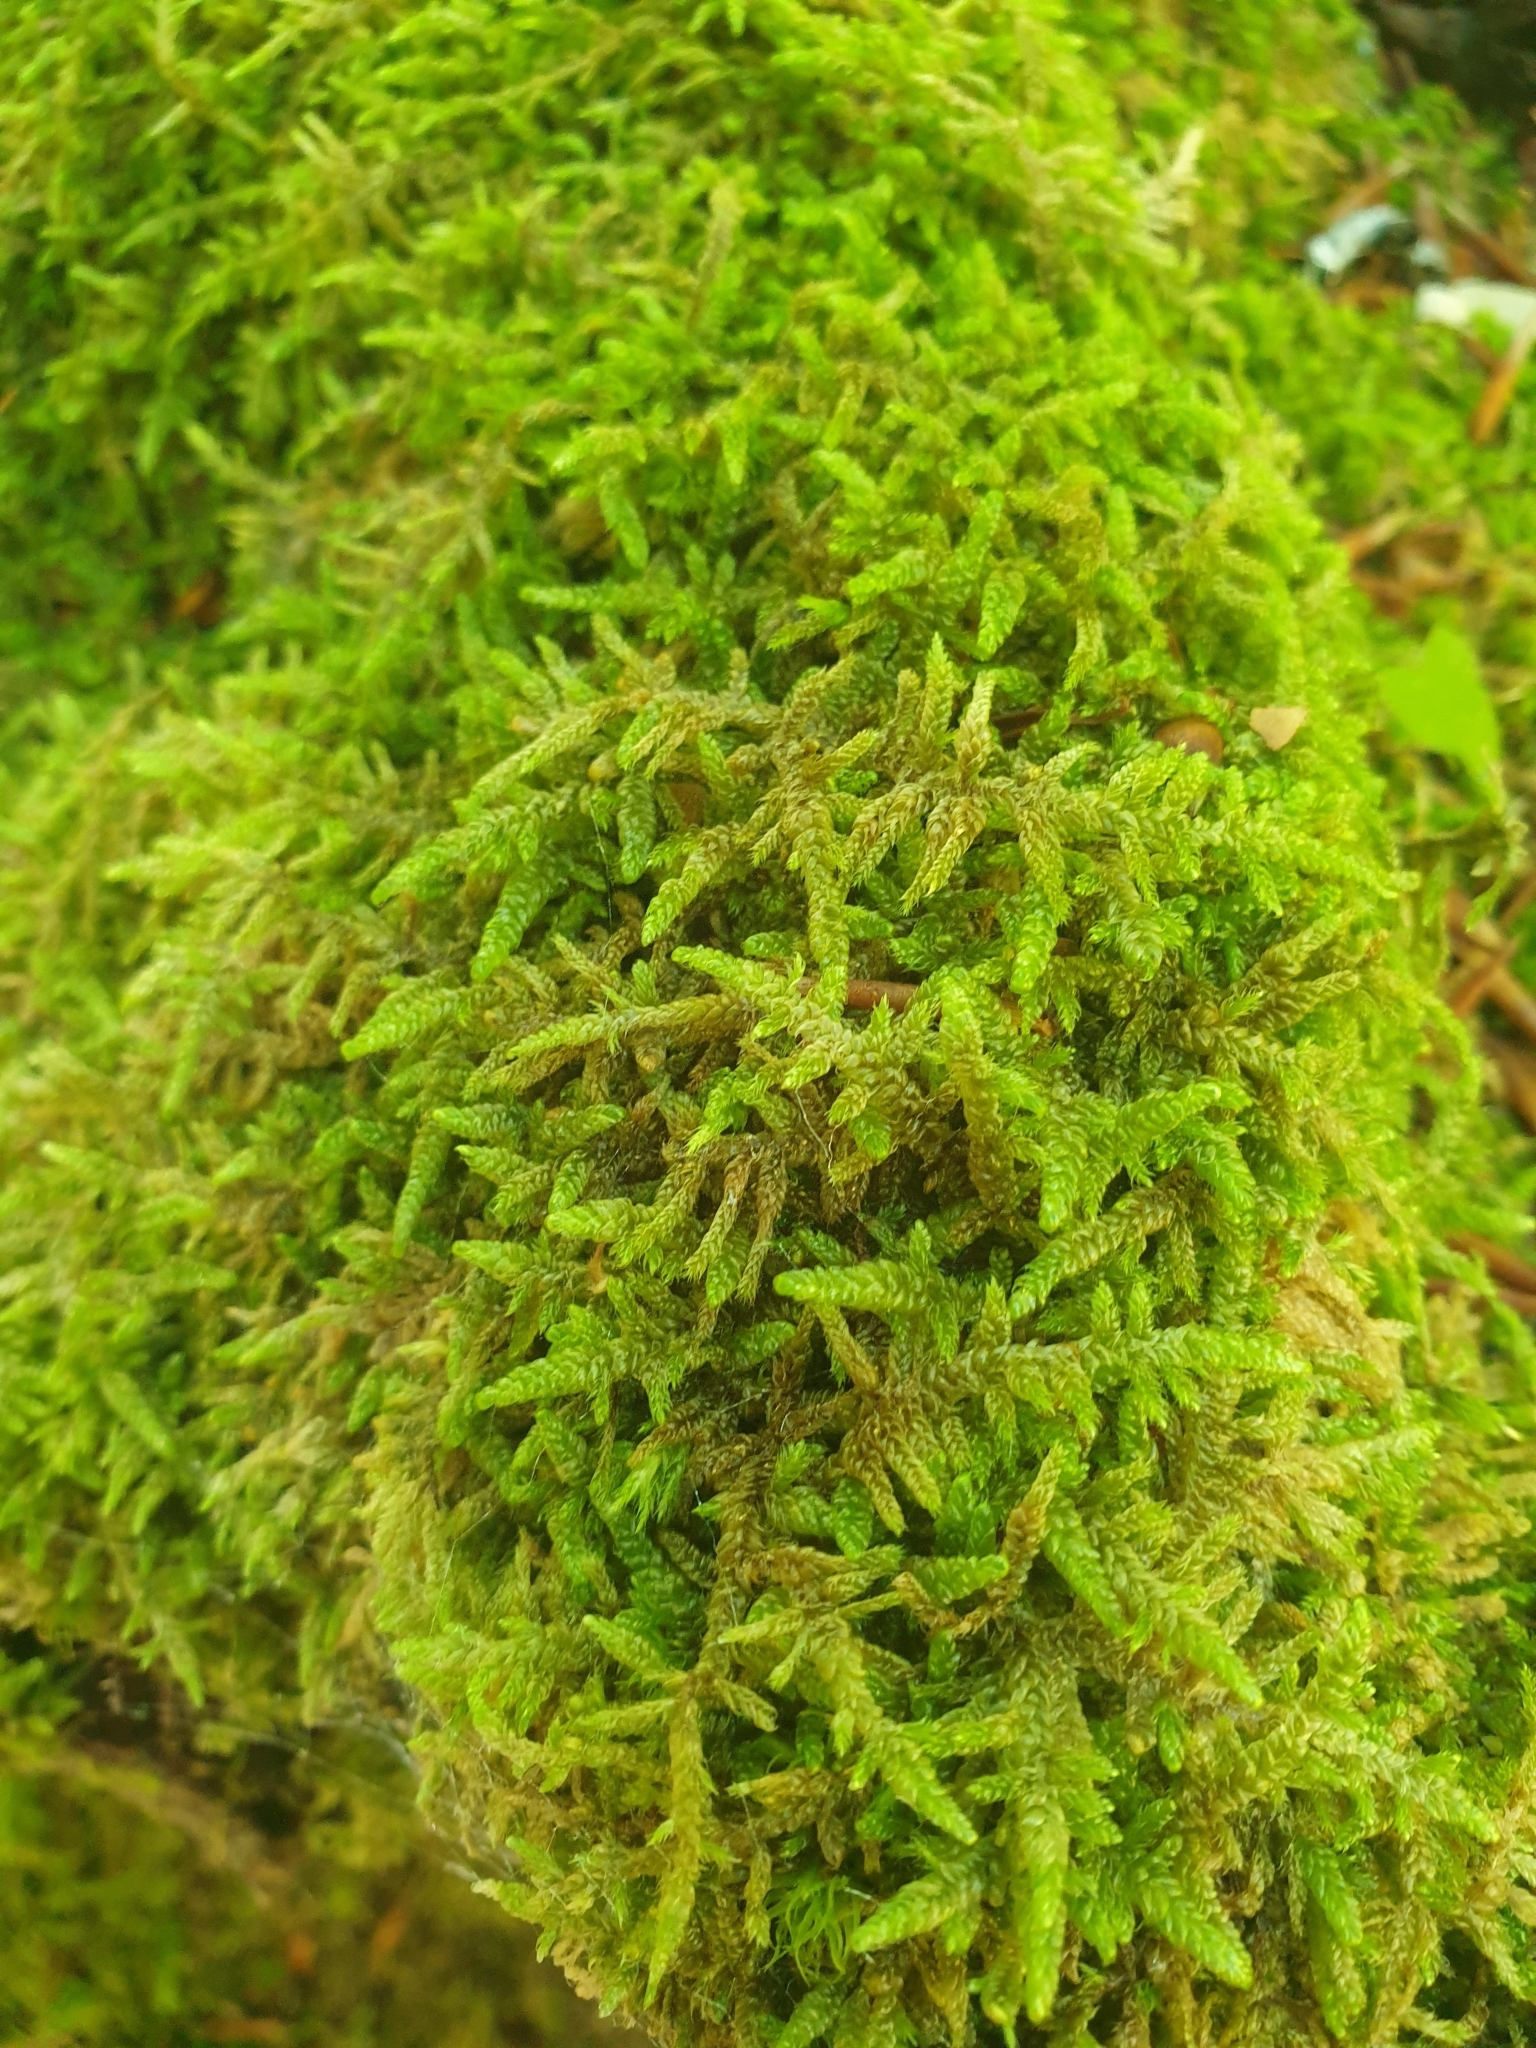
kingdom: Plantae
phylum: Bryophyta
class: Bryopsida
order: Hypnales
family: Hypnaceae
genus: Hypnum
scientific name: Hypnum cupressiforme
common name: Cypress-leaved plait-moss
